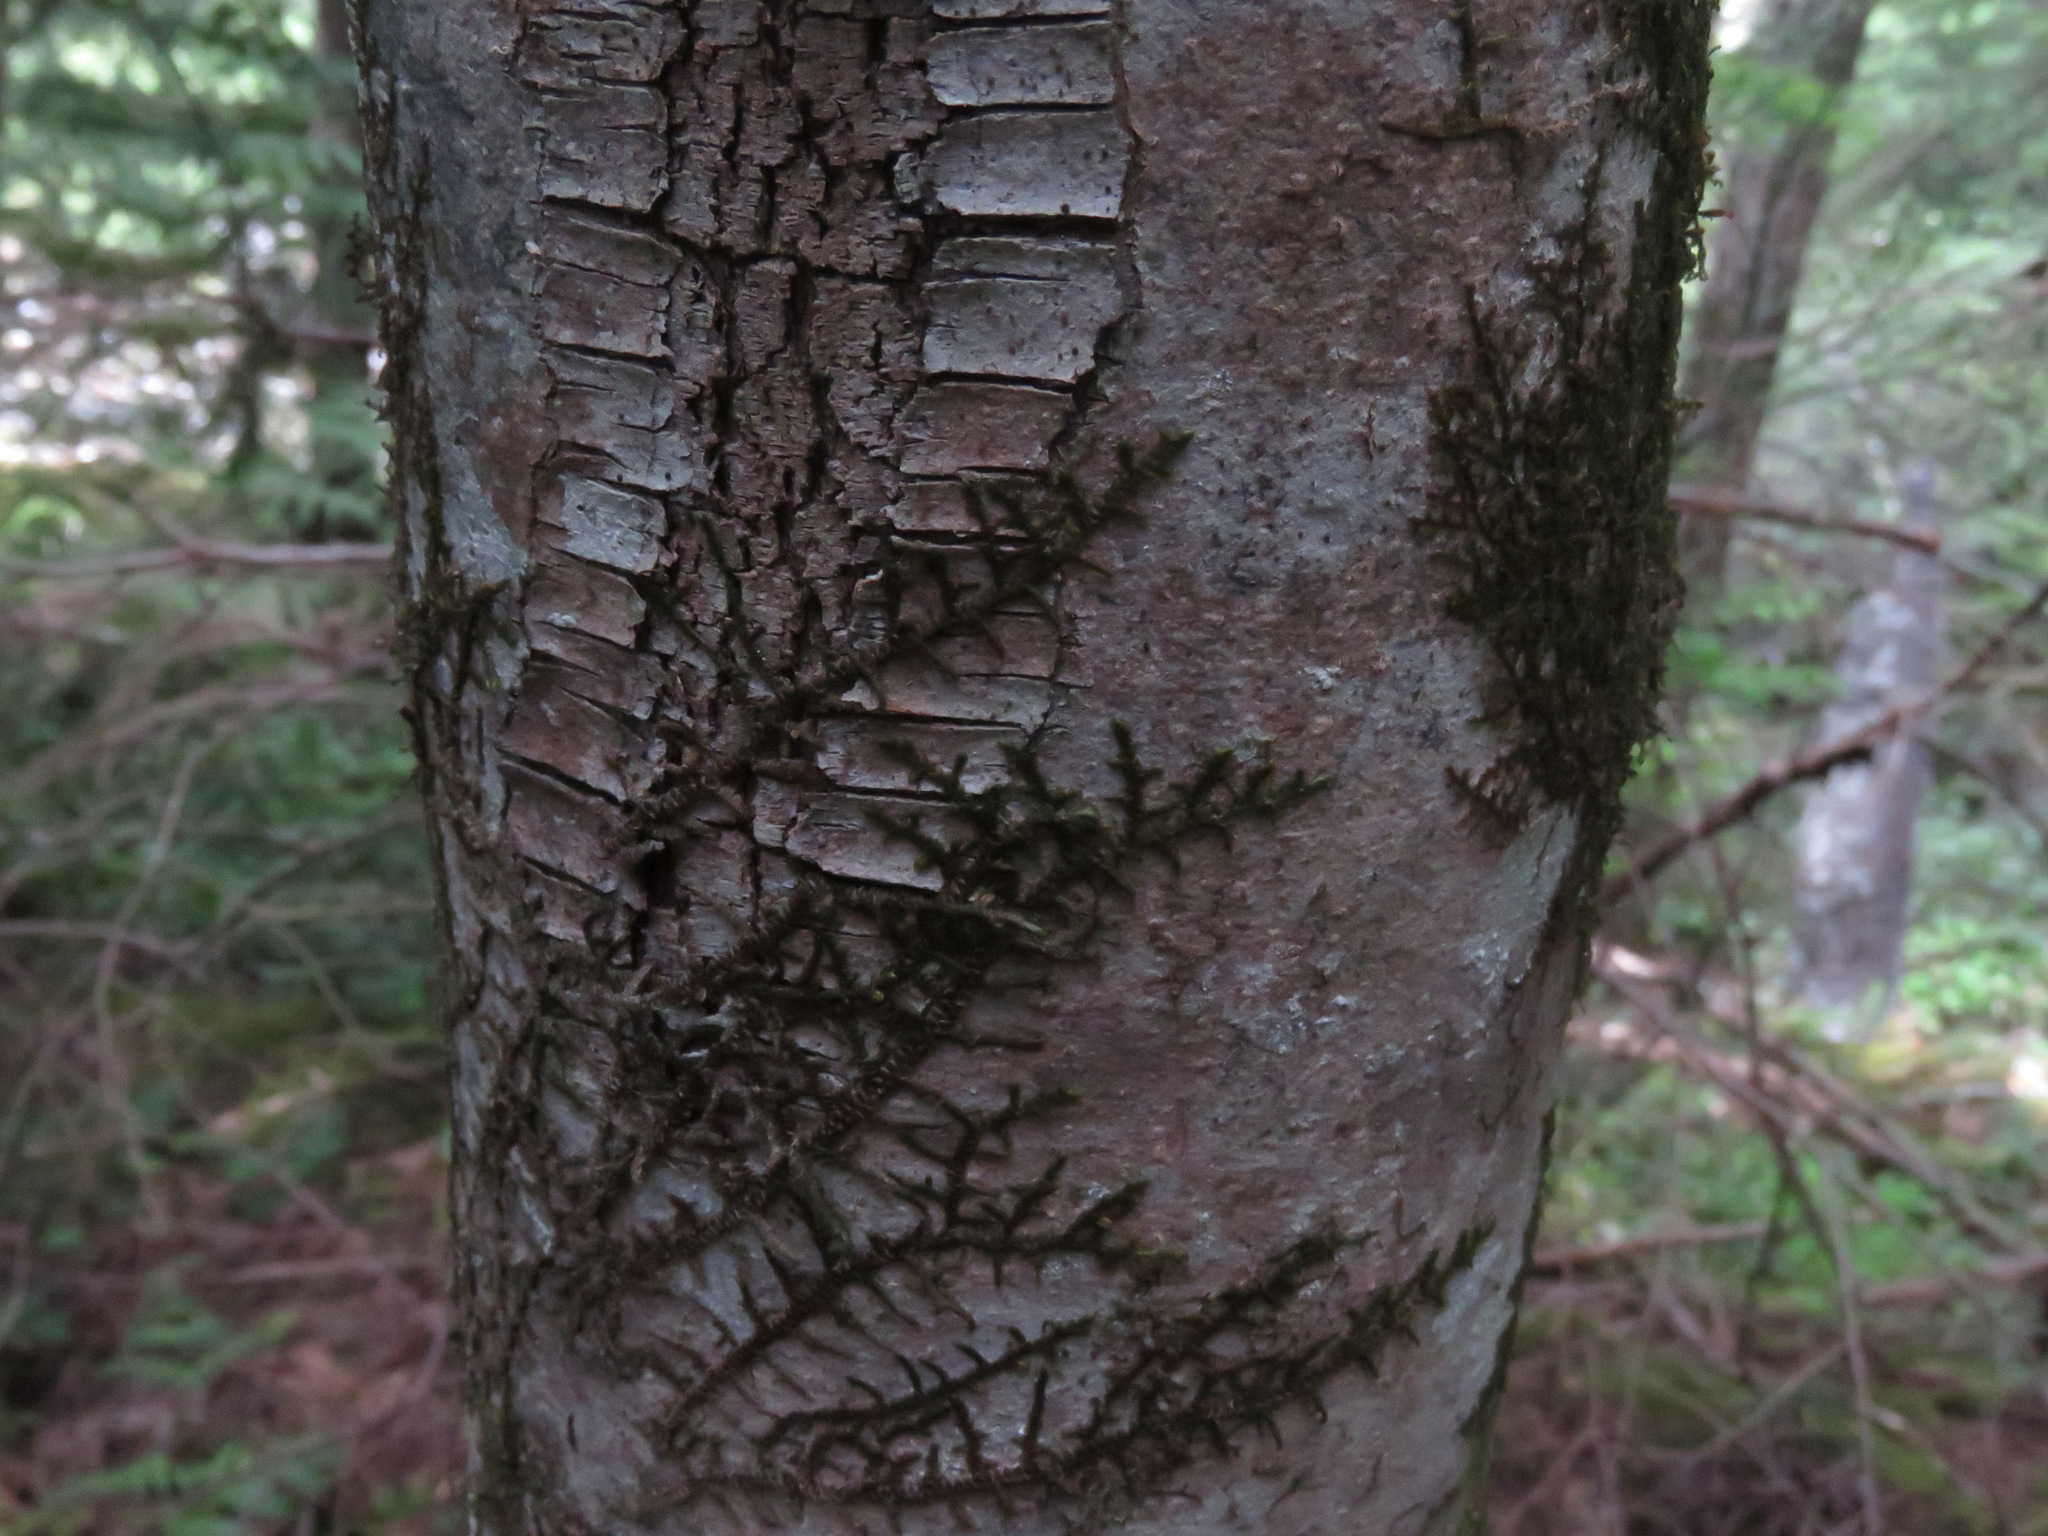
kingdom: Plantae
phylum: Marchantiophyta
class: Jungermanniopsida
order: Porellales
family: Porellaceae
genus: Porella
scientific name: Porella navicularis
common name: Tree ruffle liverwort
